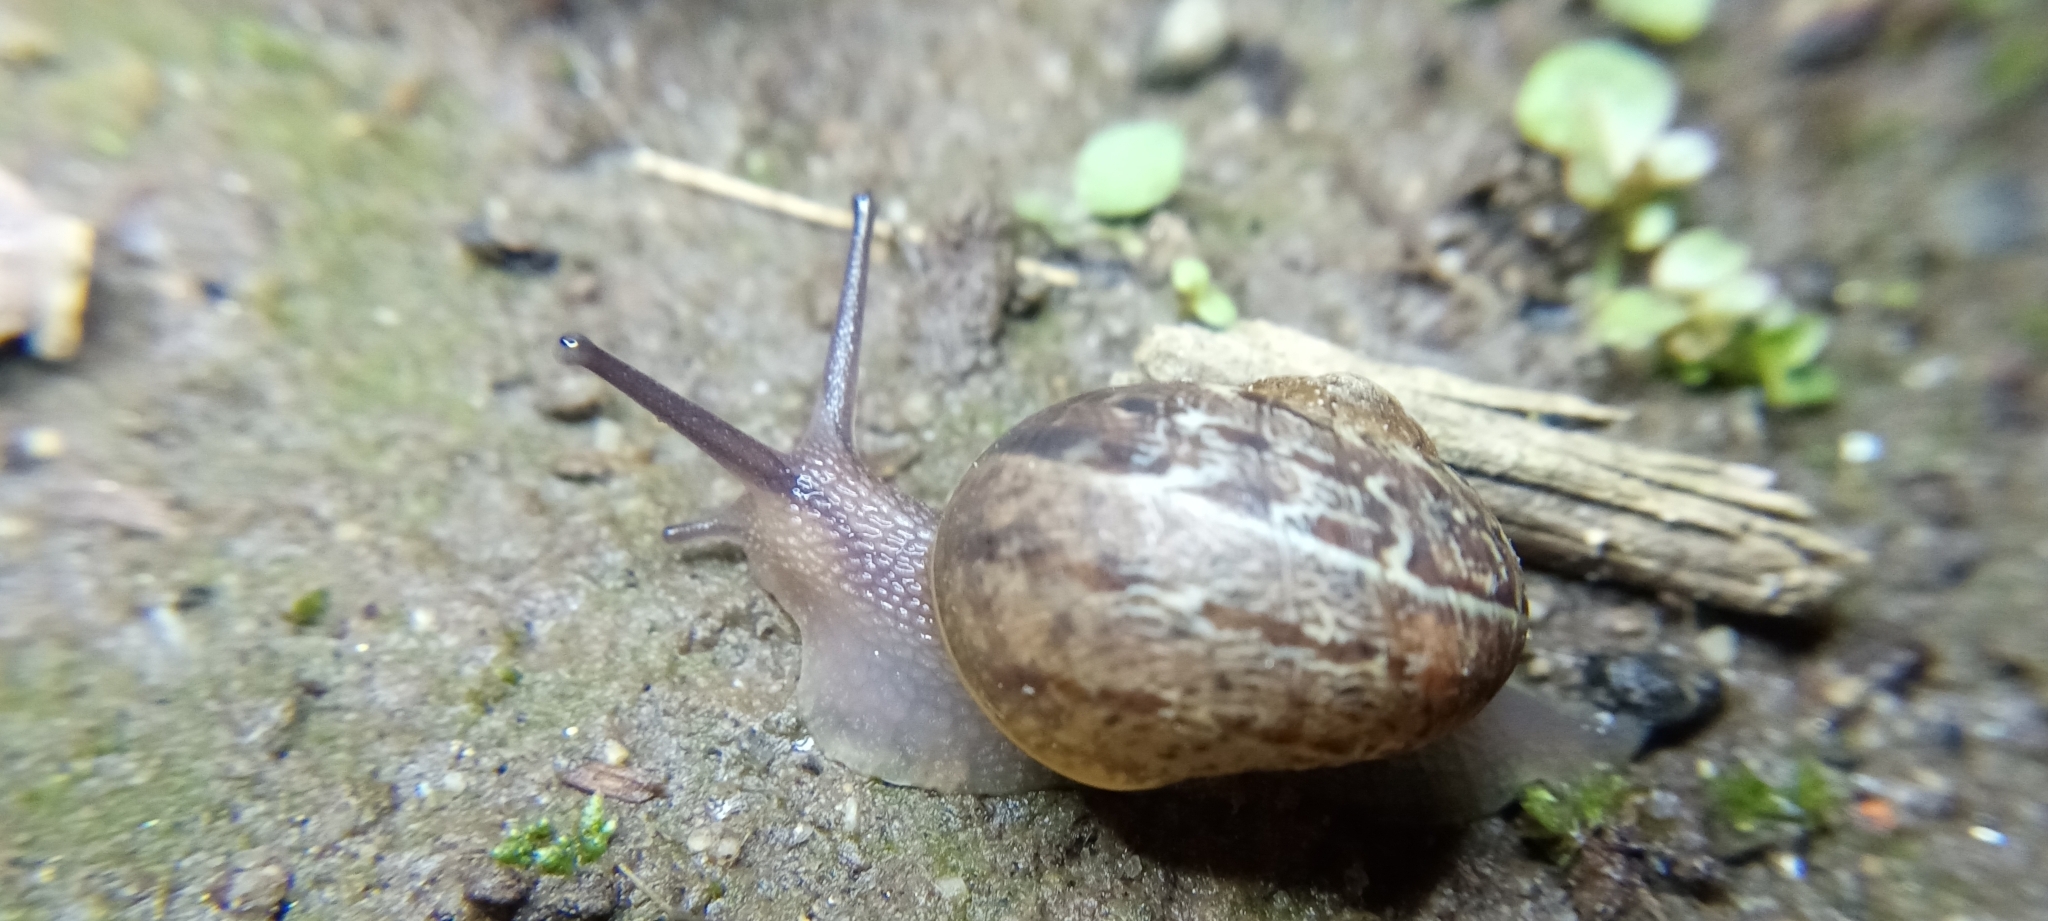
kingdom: Animalia
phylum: Mollusca
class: Gastropoda
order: Stylommatophora
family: Helicidae
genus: Cornu
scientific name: Cornu aspersum
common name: Brown garden snail
